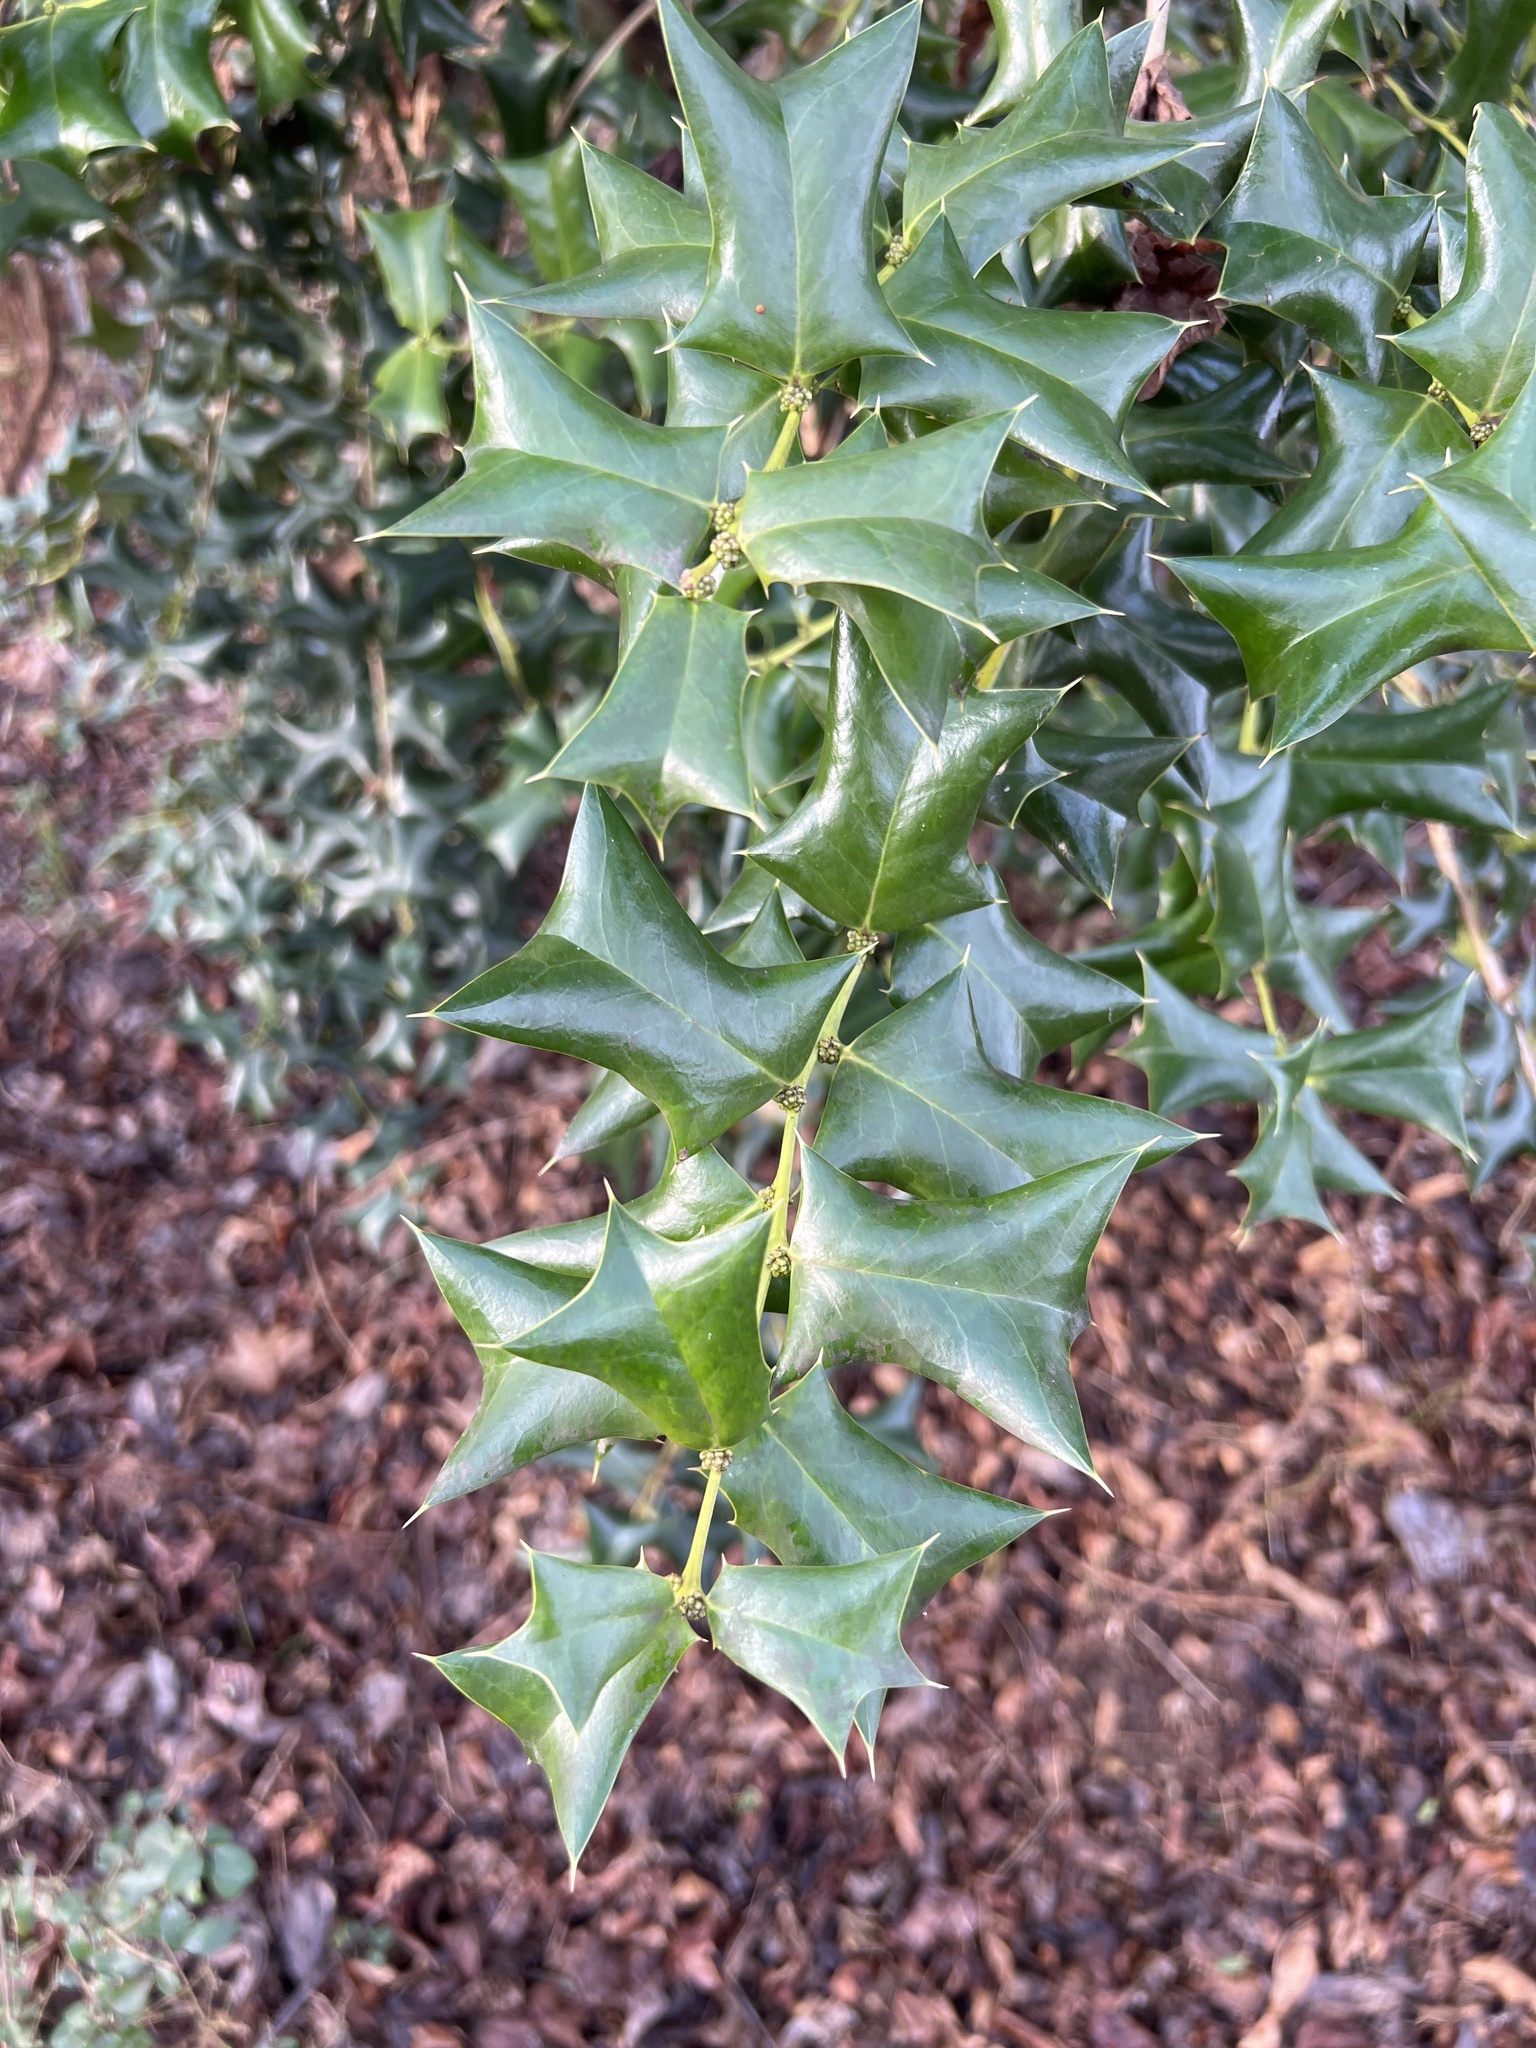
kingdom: Plantae
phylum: Tracheophyta
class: Magnoliopsida
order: Aquifoliales
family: Aquifoliaceae
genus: Ilex
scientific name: Ilex cornuta
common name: Chinese holly
